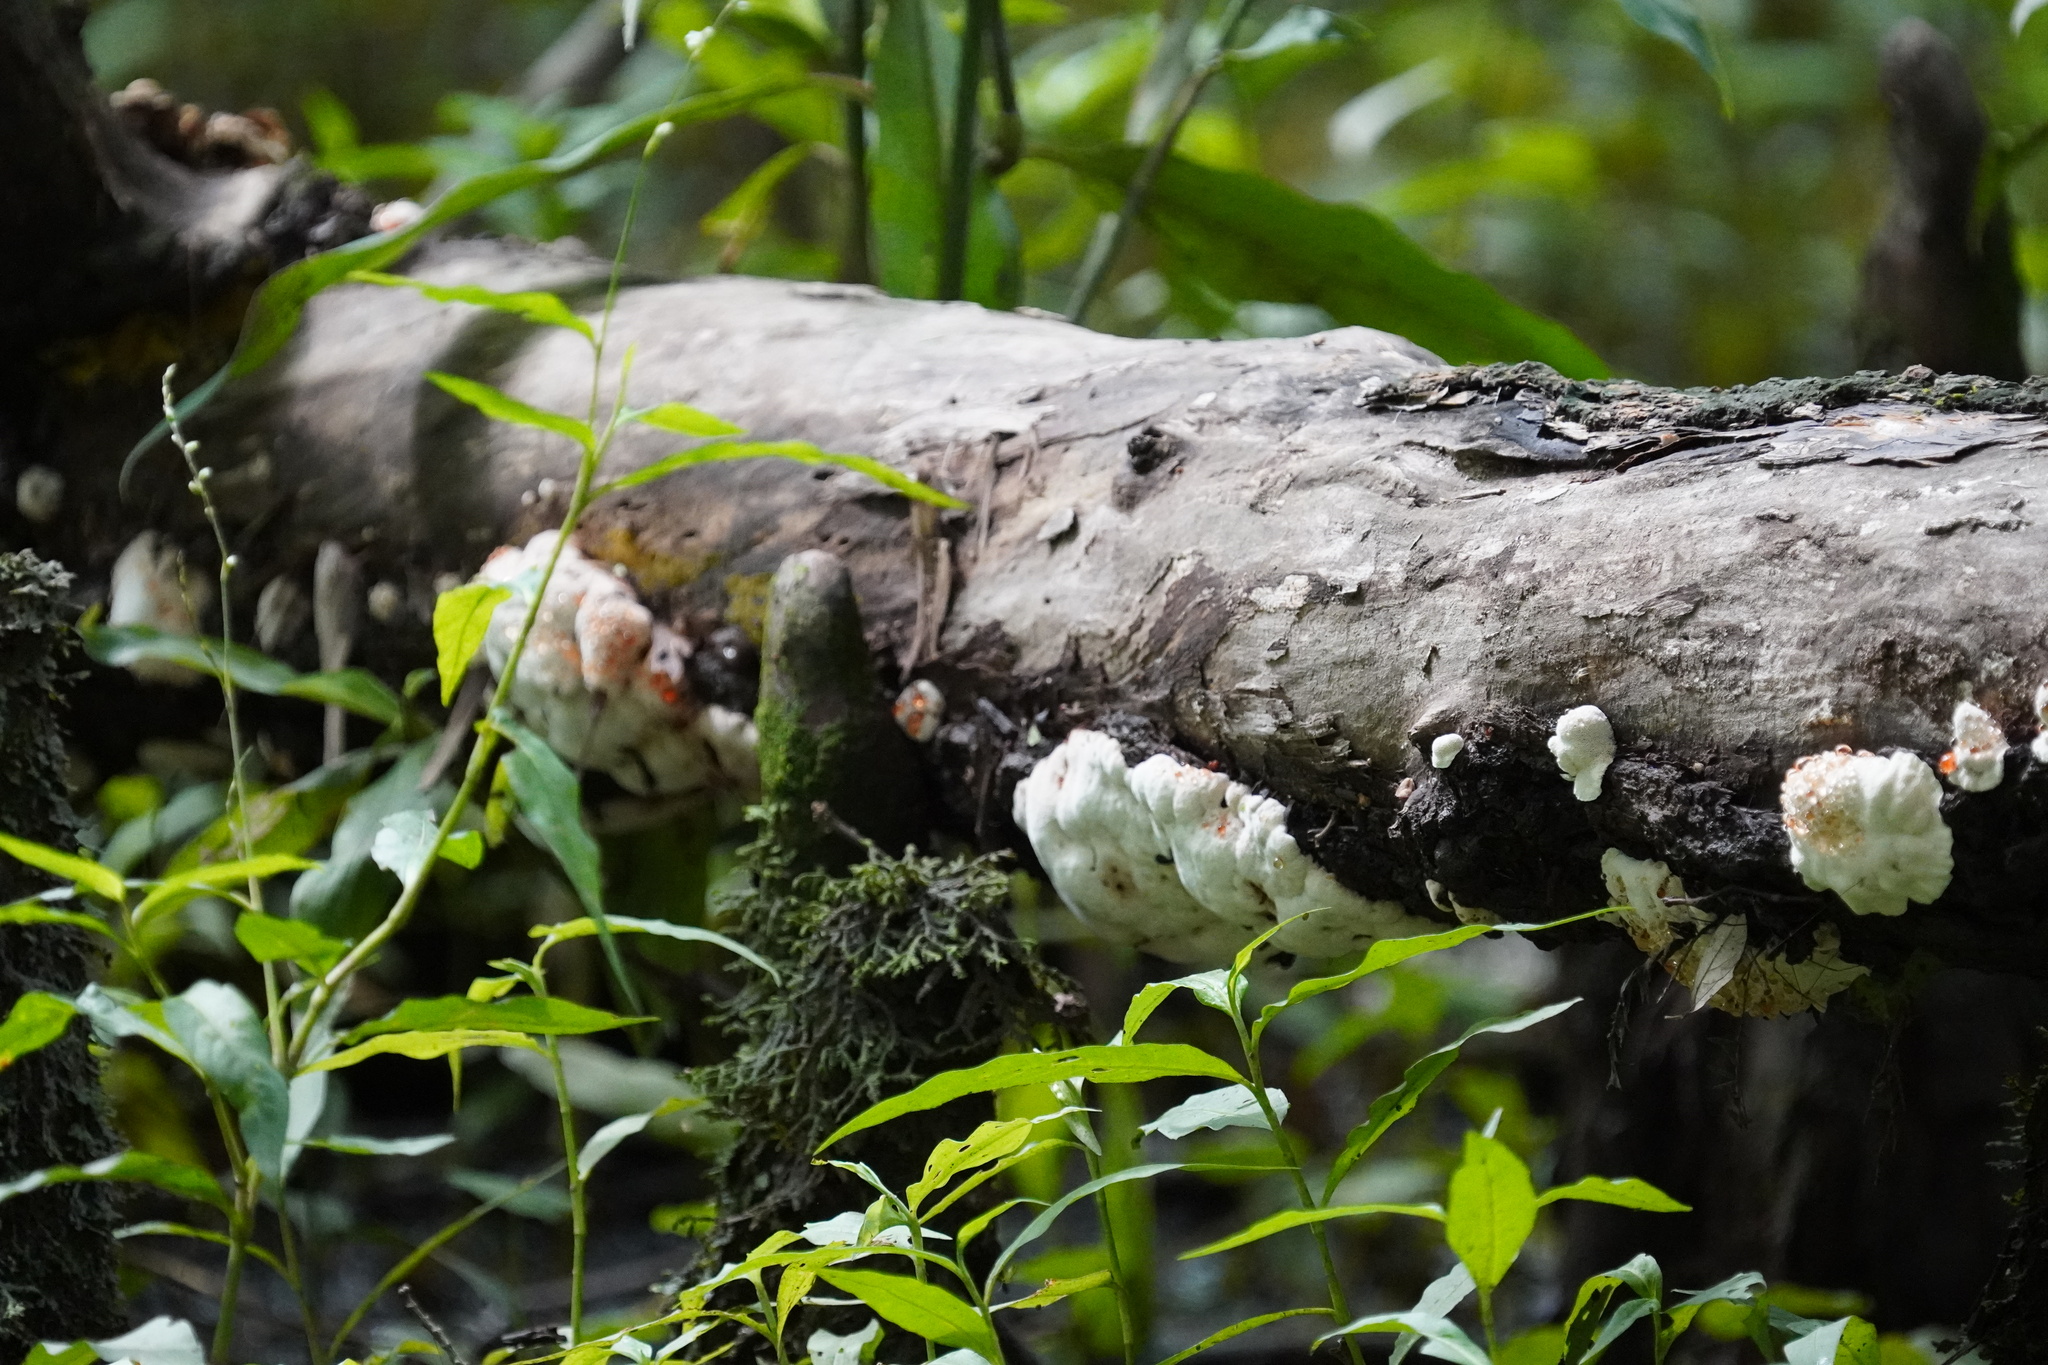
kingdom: Fungi
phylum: Basidiomycota
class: Agaricomycetes
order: Polyporales
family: Podoscyphaceae
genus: Abortiporus
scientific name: Abortiporus biennis
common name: Blushing rosette
